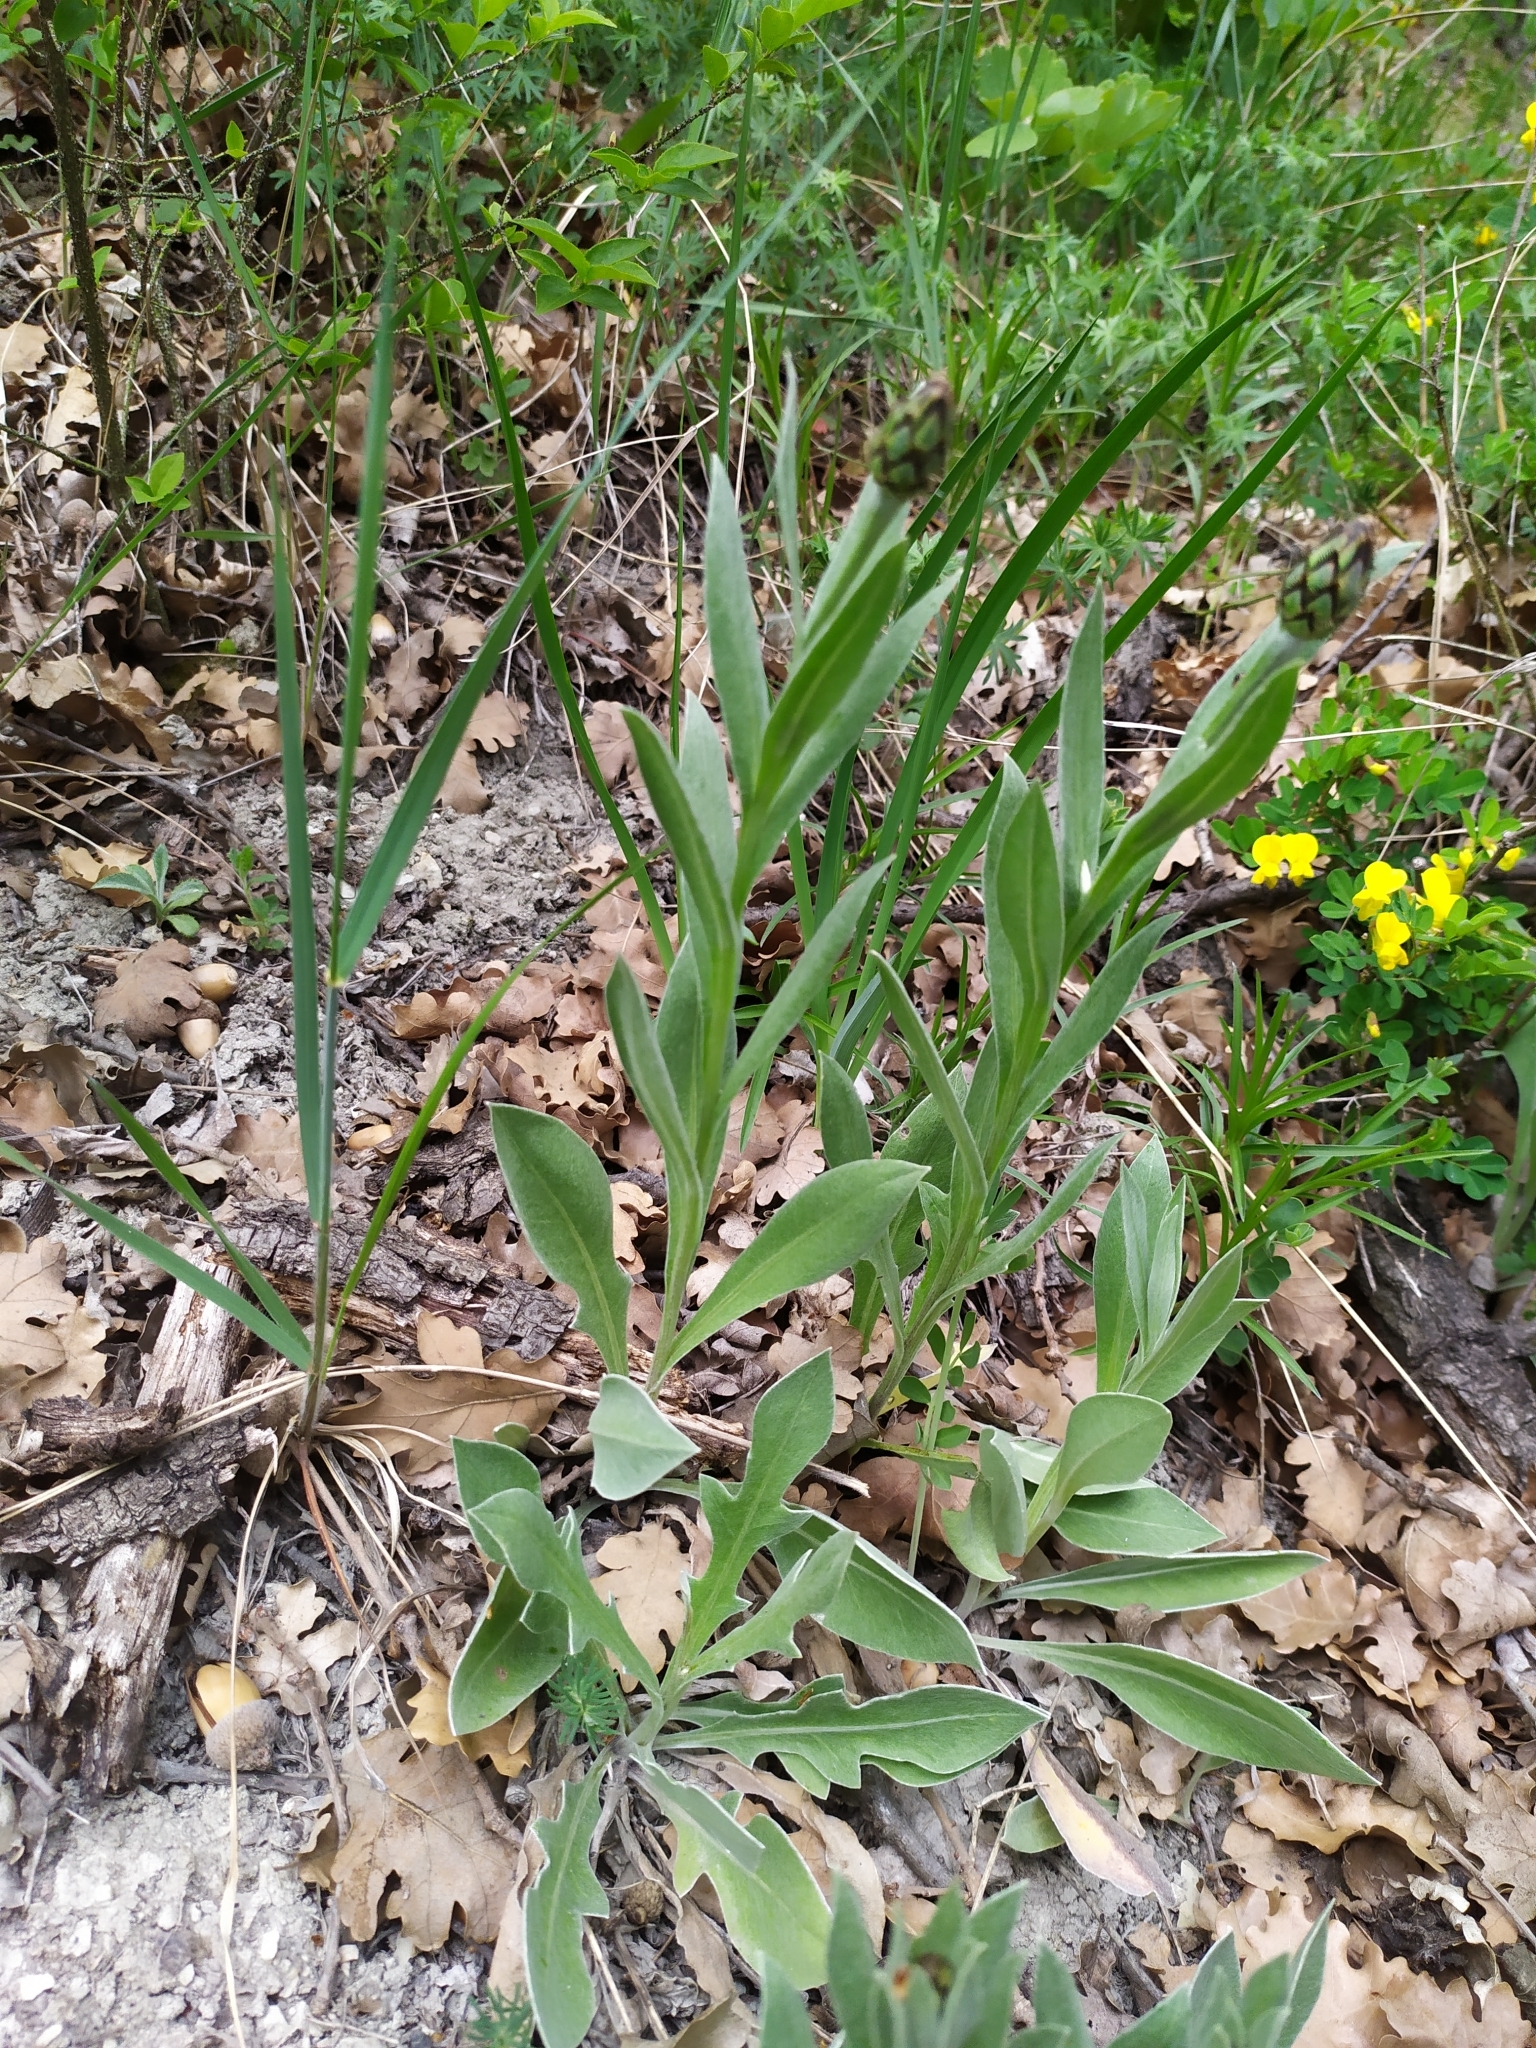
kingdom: Plantae
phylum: Tracheophyta
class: Magnoliopsida
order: Asterales
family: Asteraceae
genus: Centaurea
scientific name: Centaurea triumfettii
